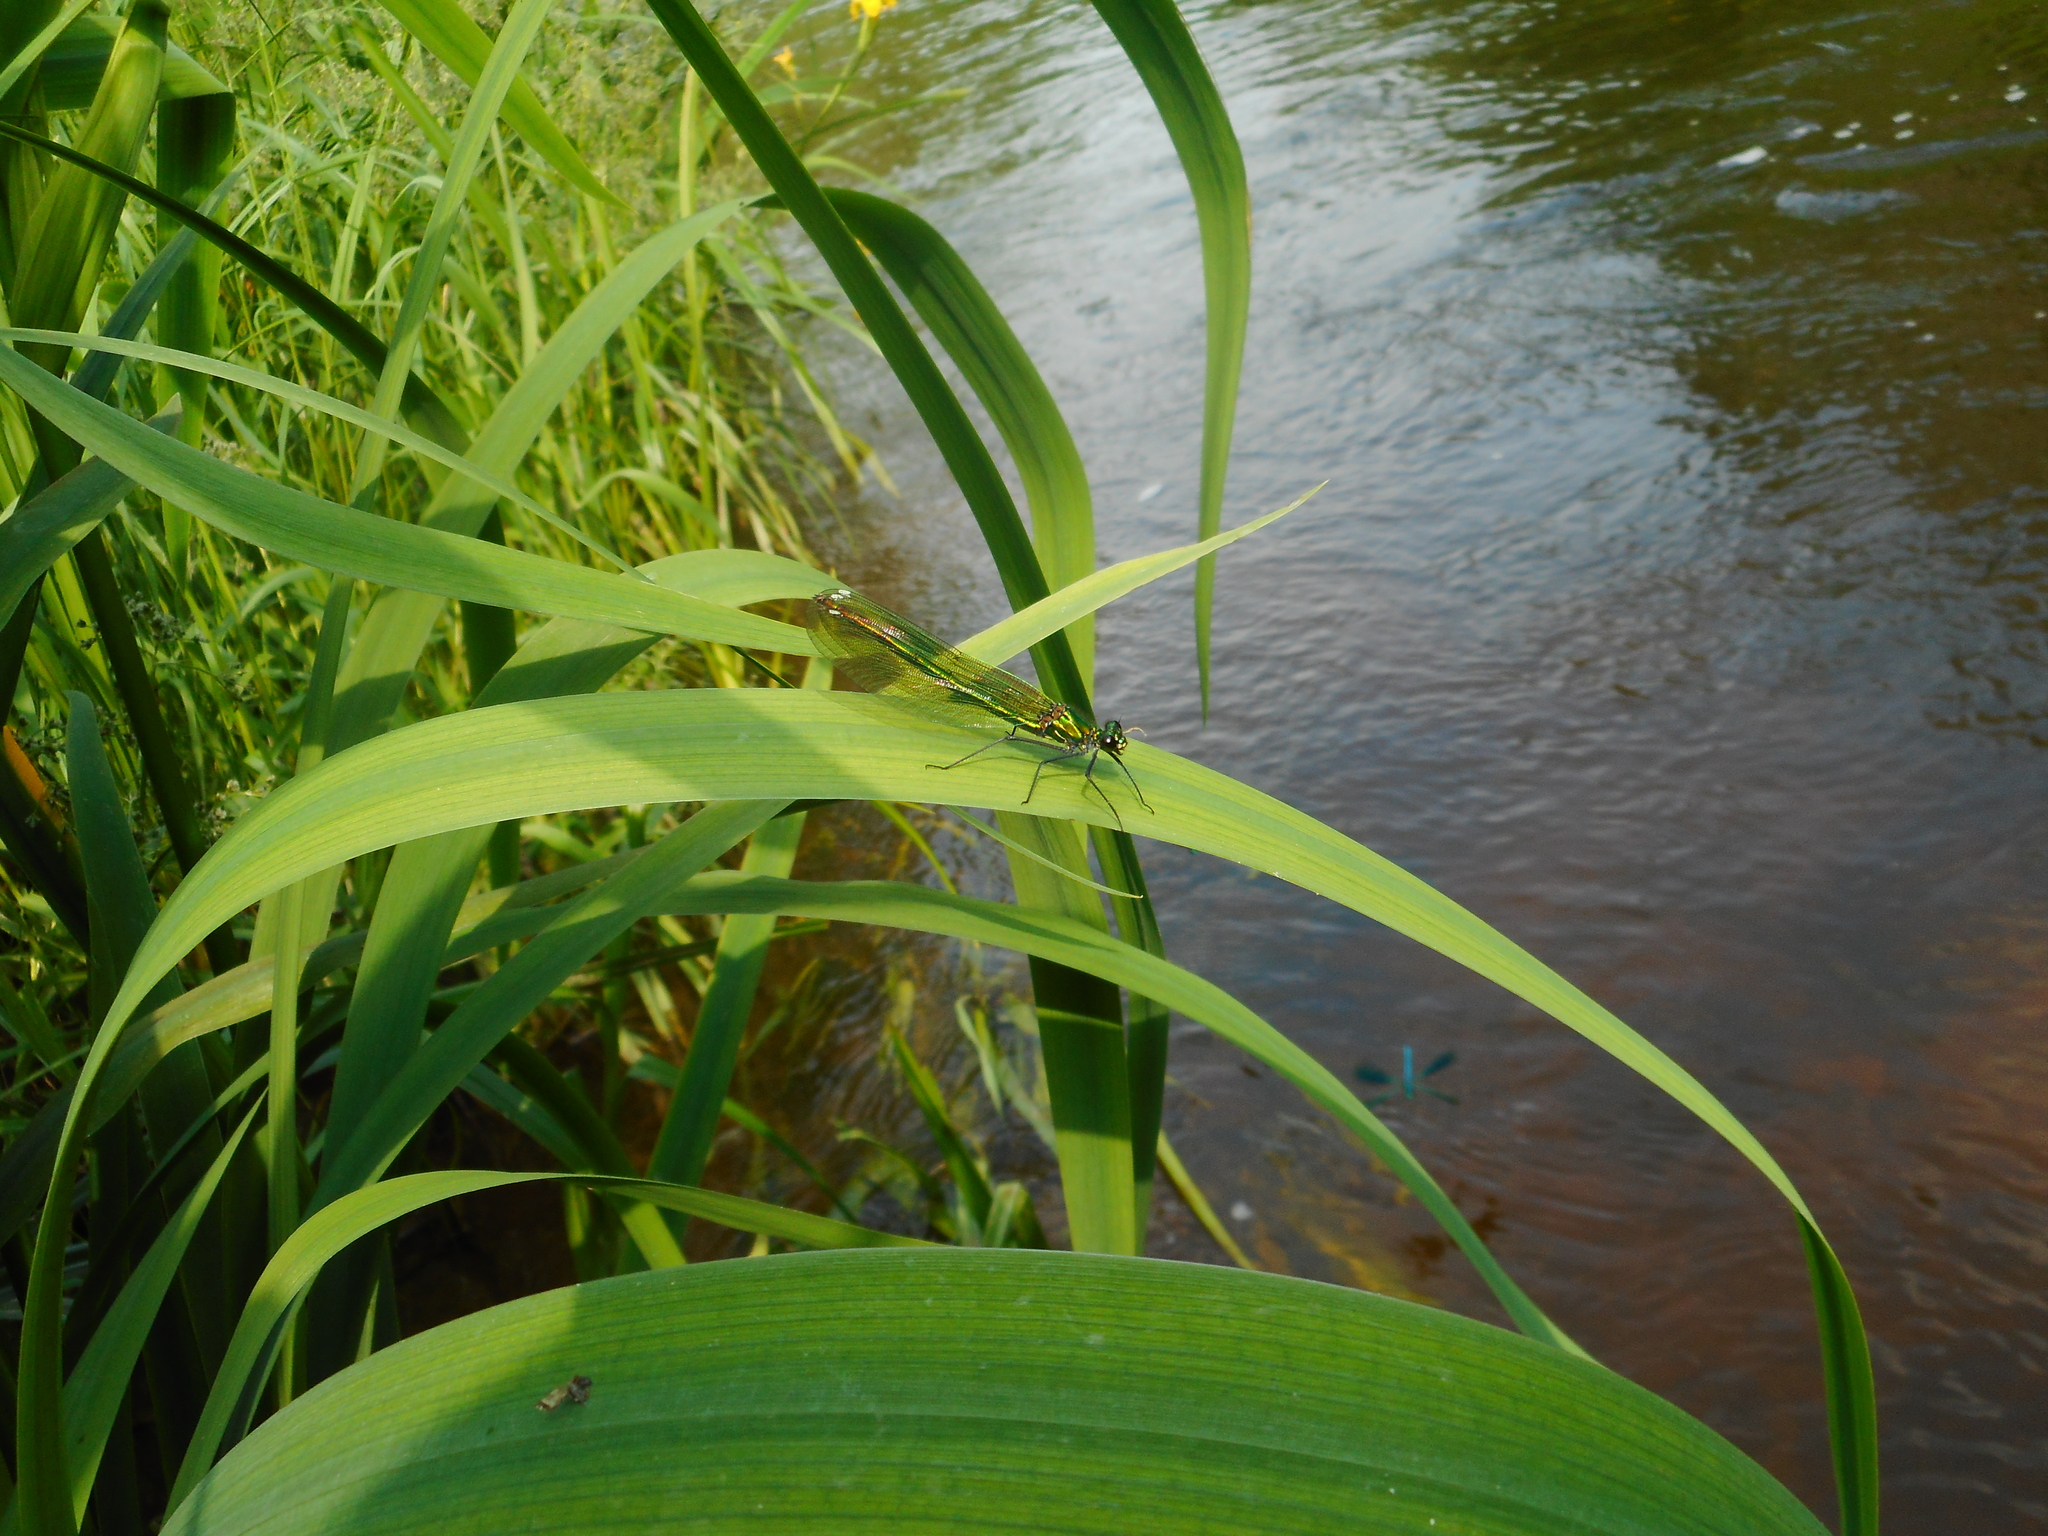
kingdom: Animalia
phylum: Arthropoda
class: Insecta
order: Odonata
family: Calopterygidae
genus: Calopteryx
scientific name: Calopteryx splendens
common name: Banded demoiselle
